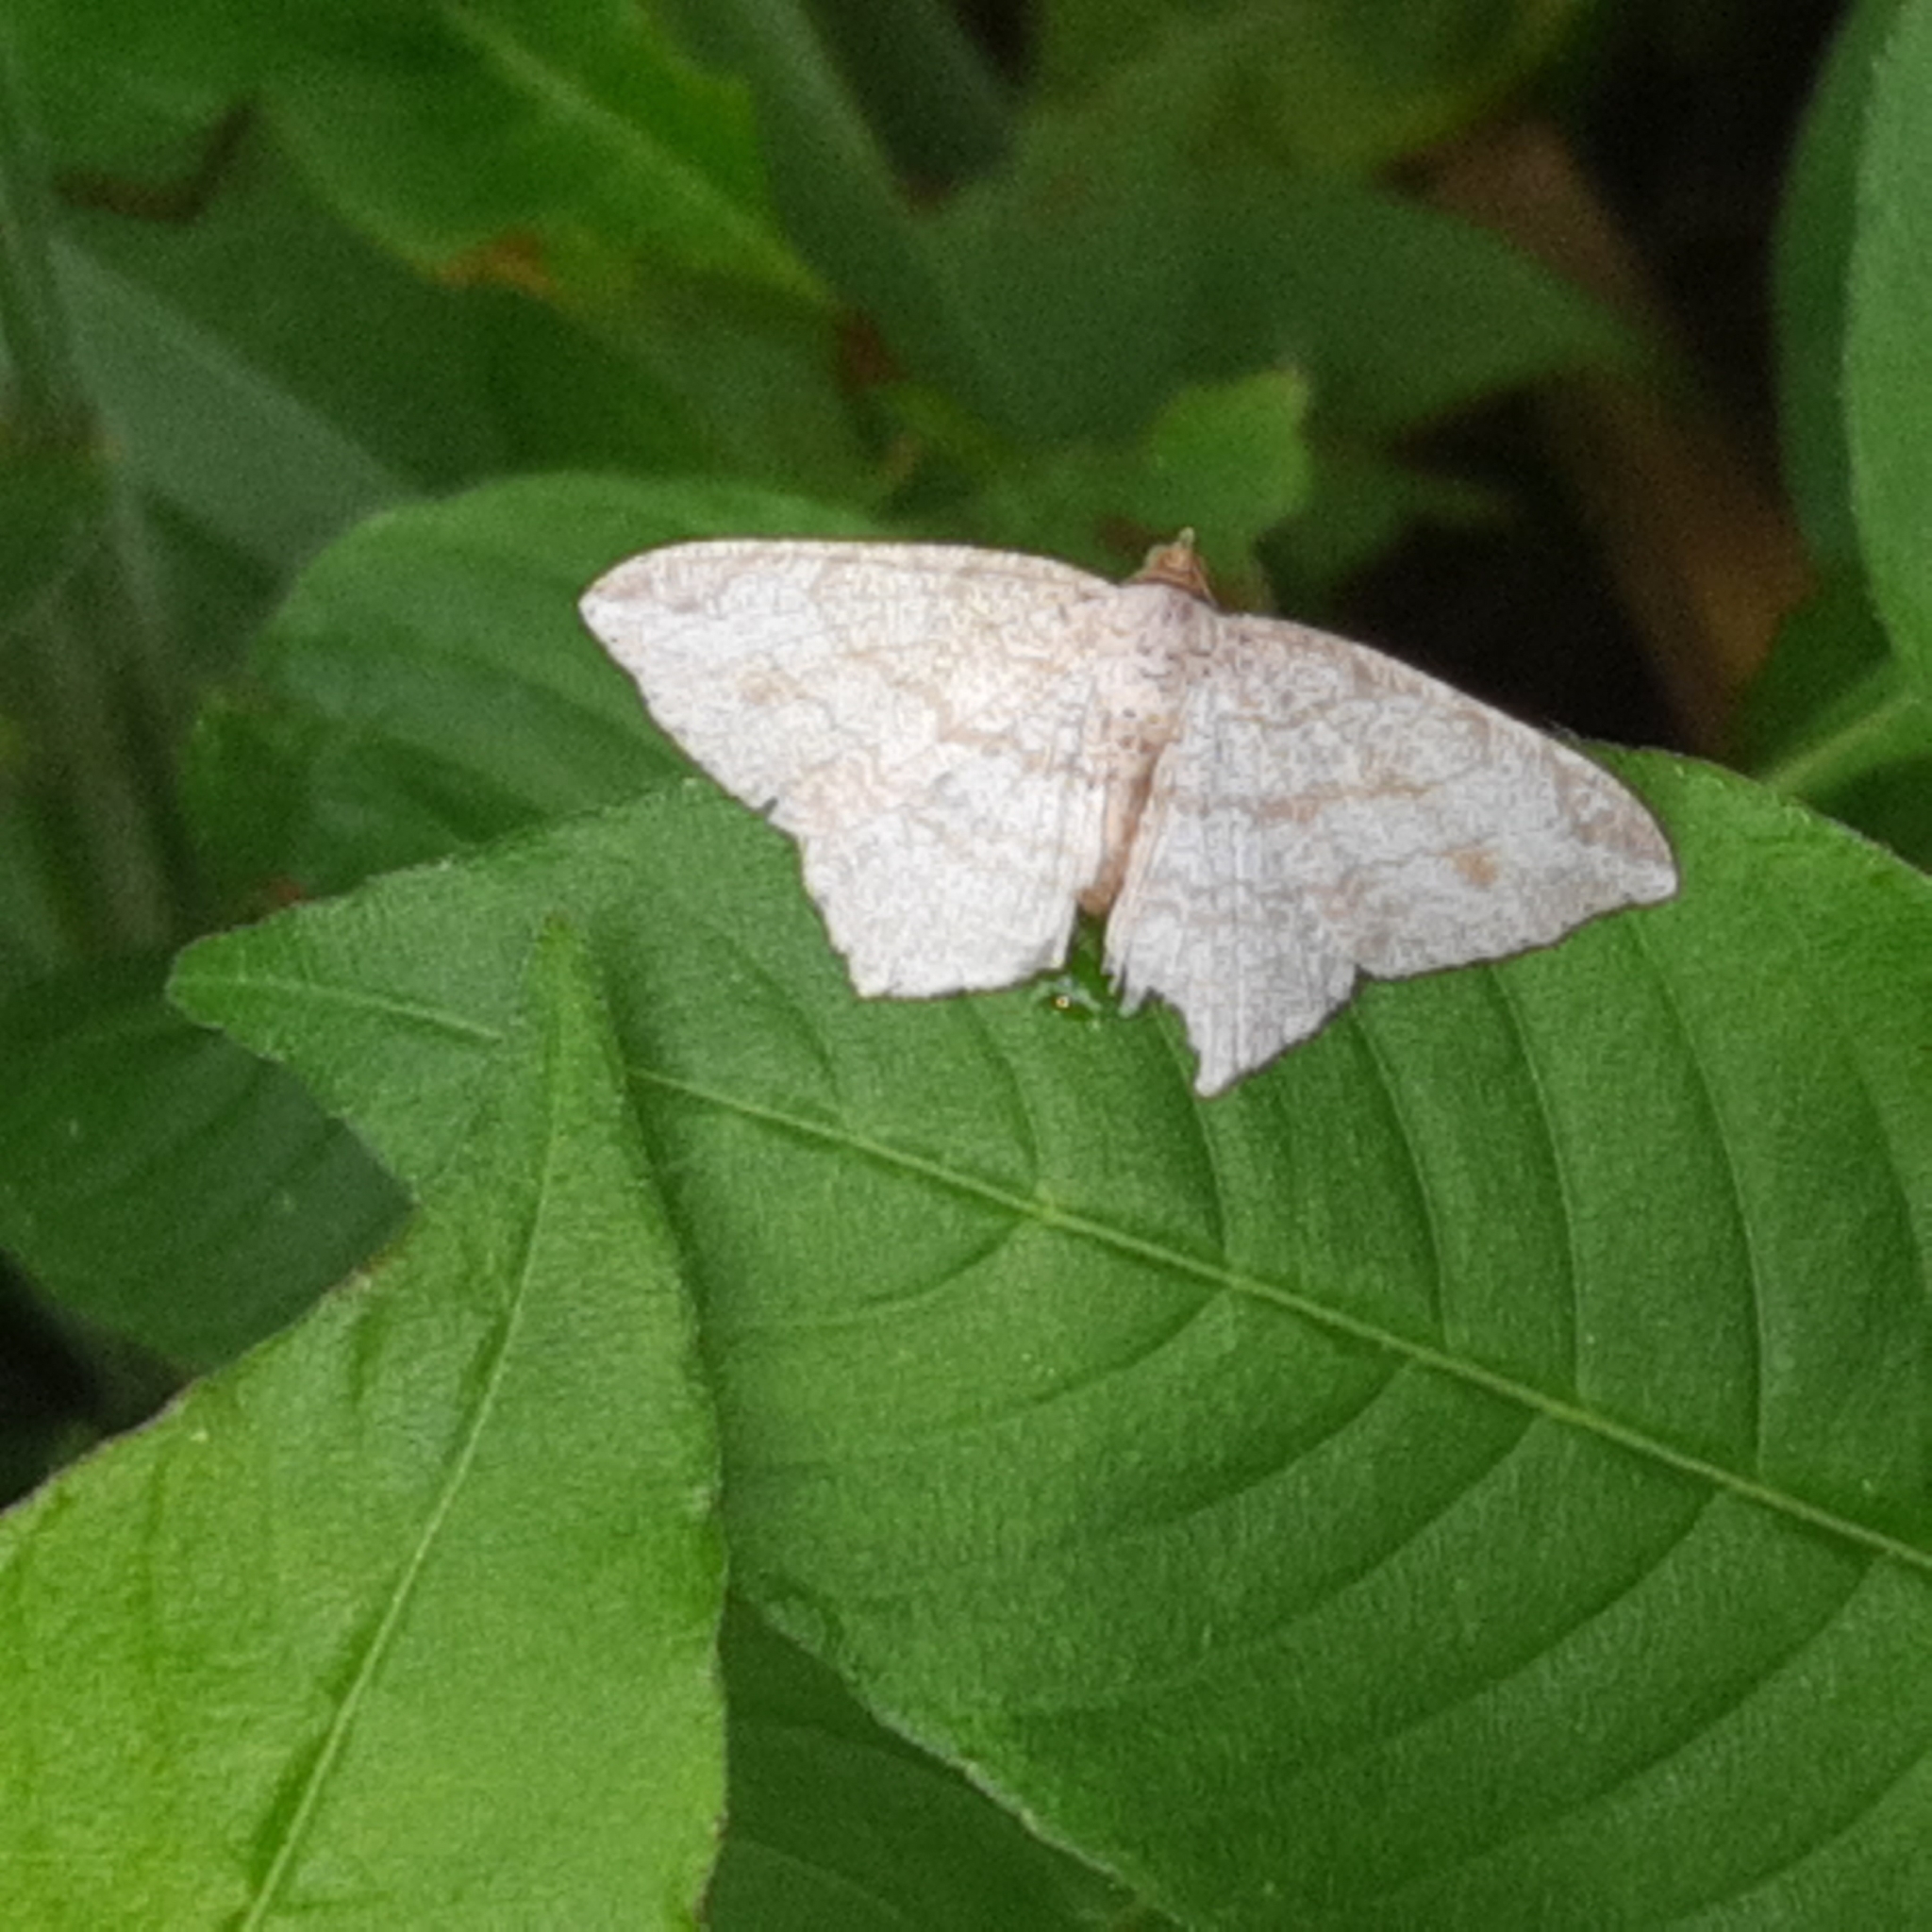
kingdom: Animalia
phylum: Arthropoda
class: Insecta
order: Lepidoptera
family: Geometridae
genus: Macaria
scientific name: Macaria
